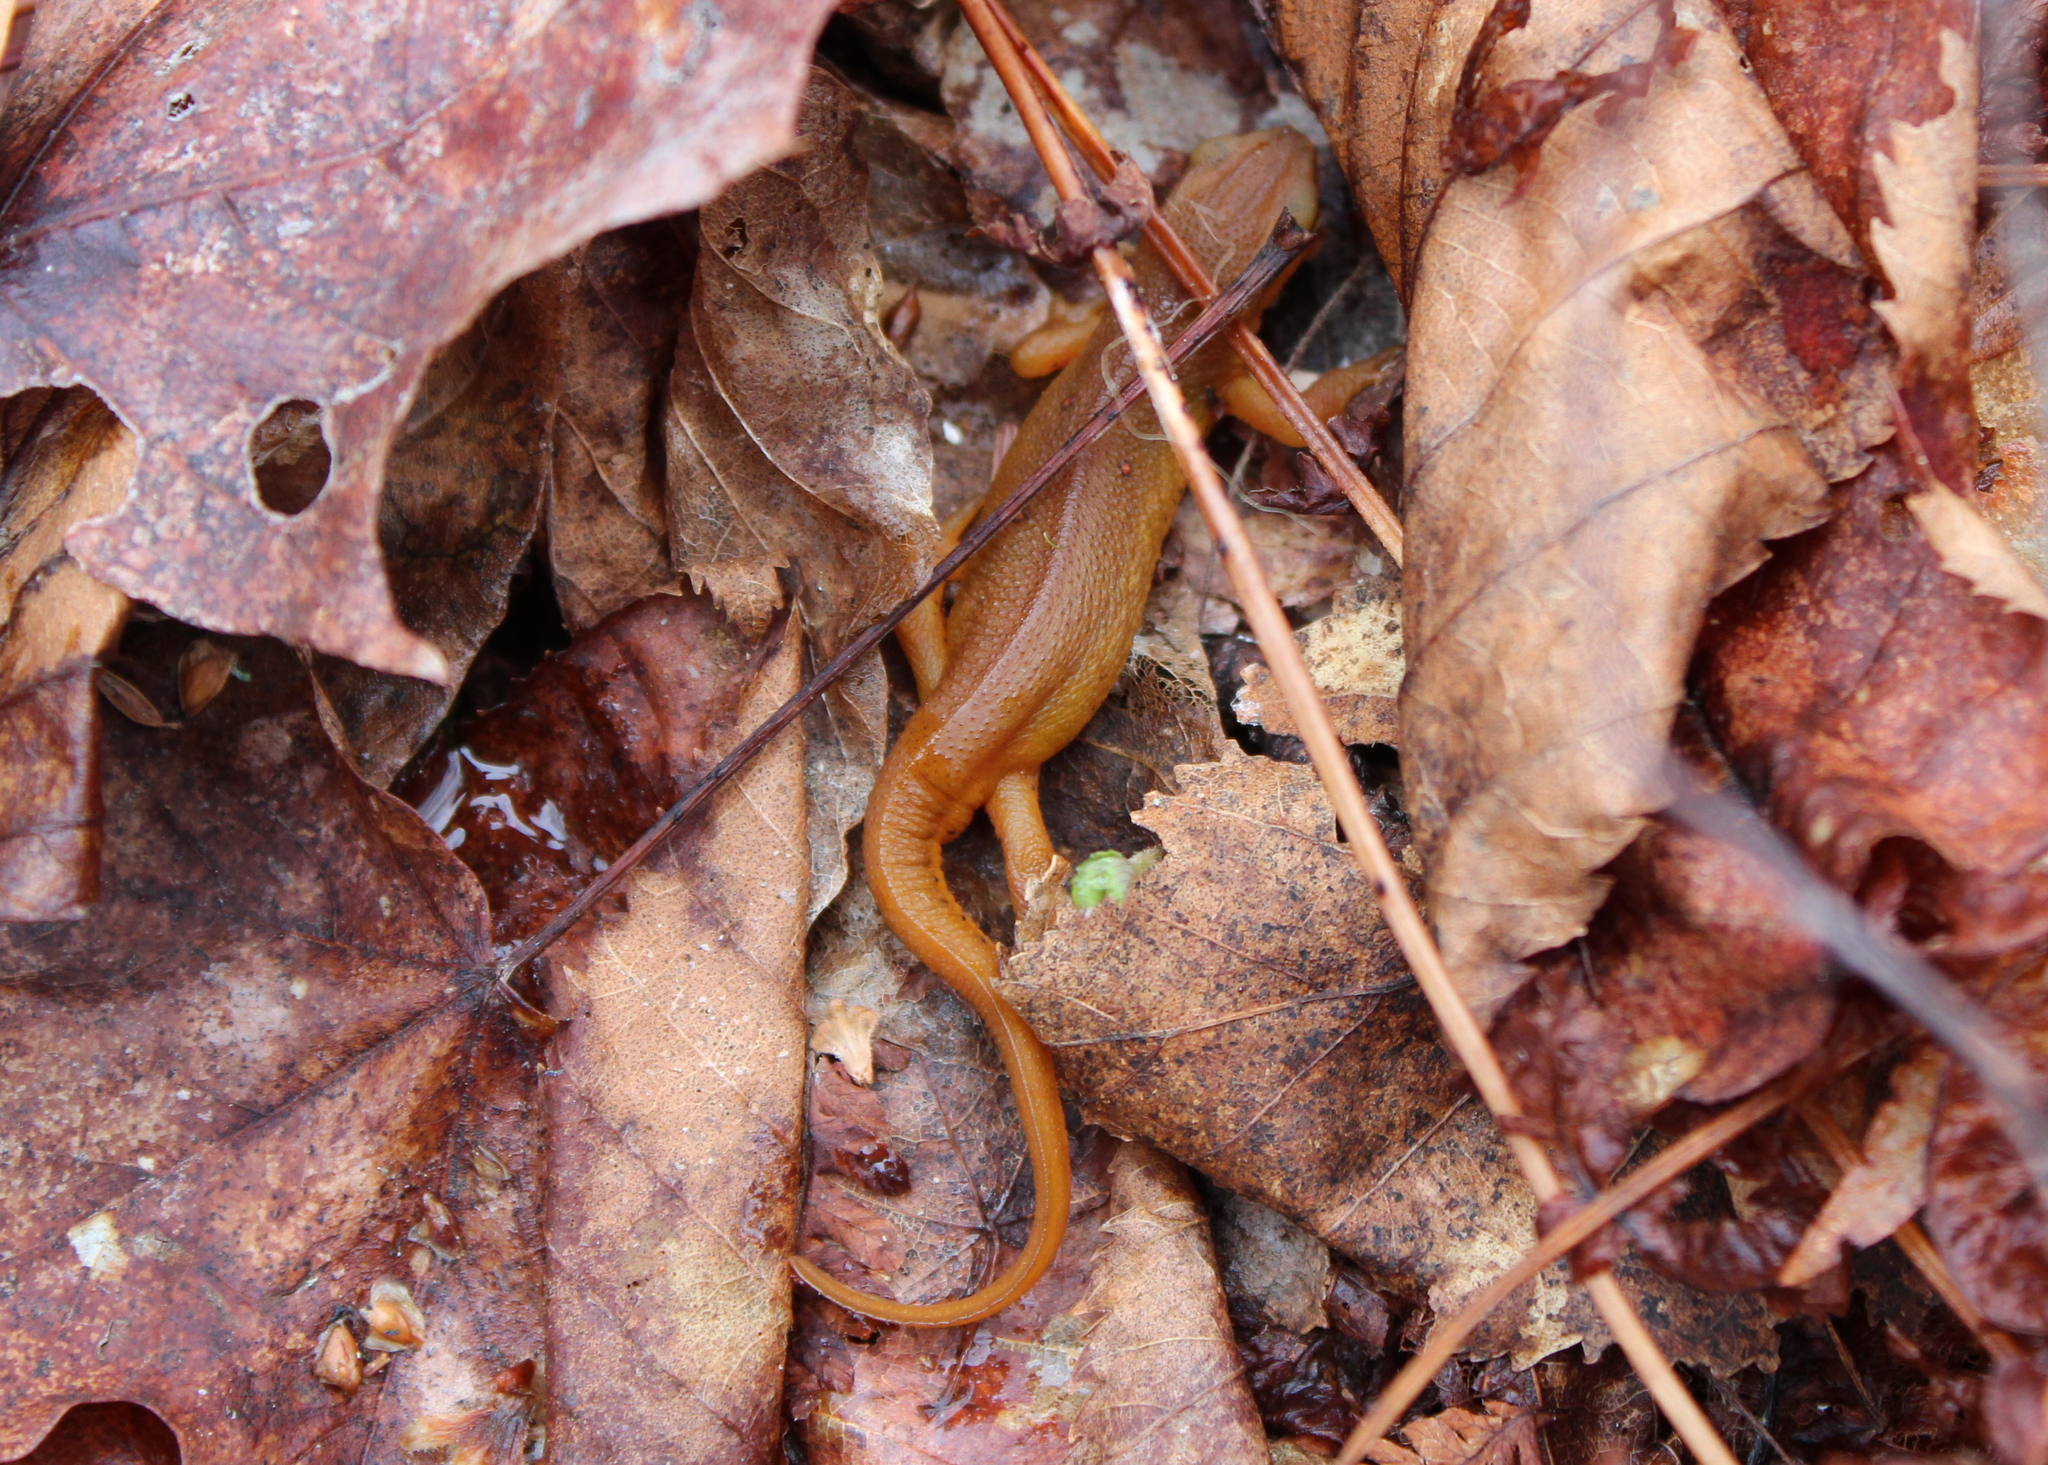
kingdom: Animalia
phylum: Chordata
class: Amphibia
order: Caudata
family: Salamandridae
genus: Notophthalmus
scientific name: Notophthalmus viridescens
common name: Eastern newt
